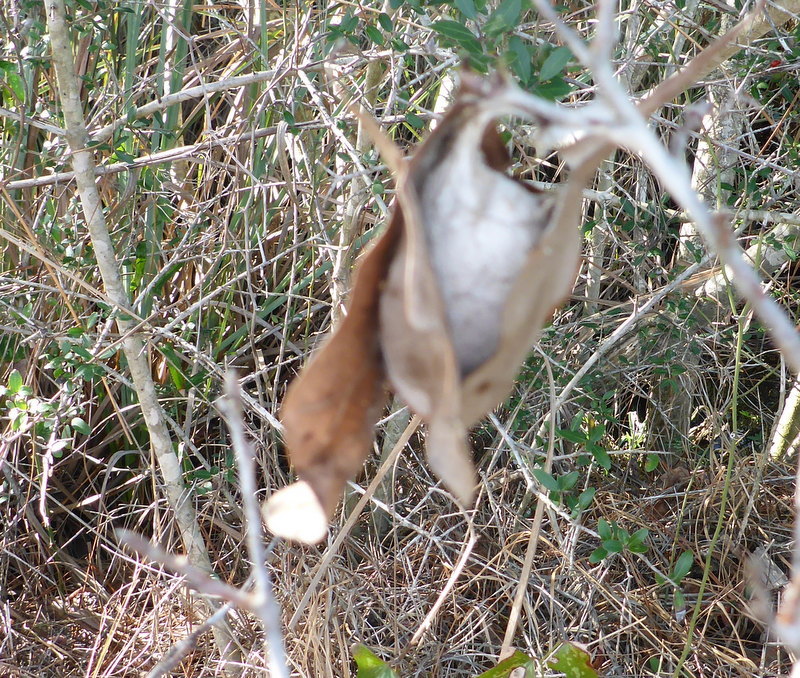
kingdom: Animalia
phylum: Arthropoda
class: Insecta
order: Lepidoptera
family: Saturniidae
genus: Antheraea
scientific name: Antheraea polyphemus
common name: Polyphemus moth
